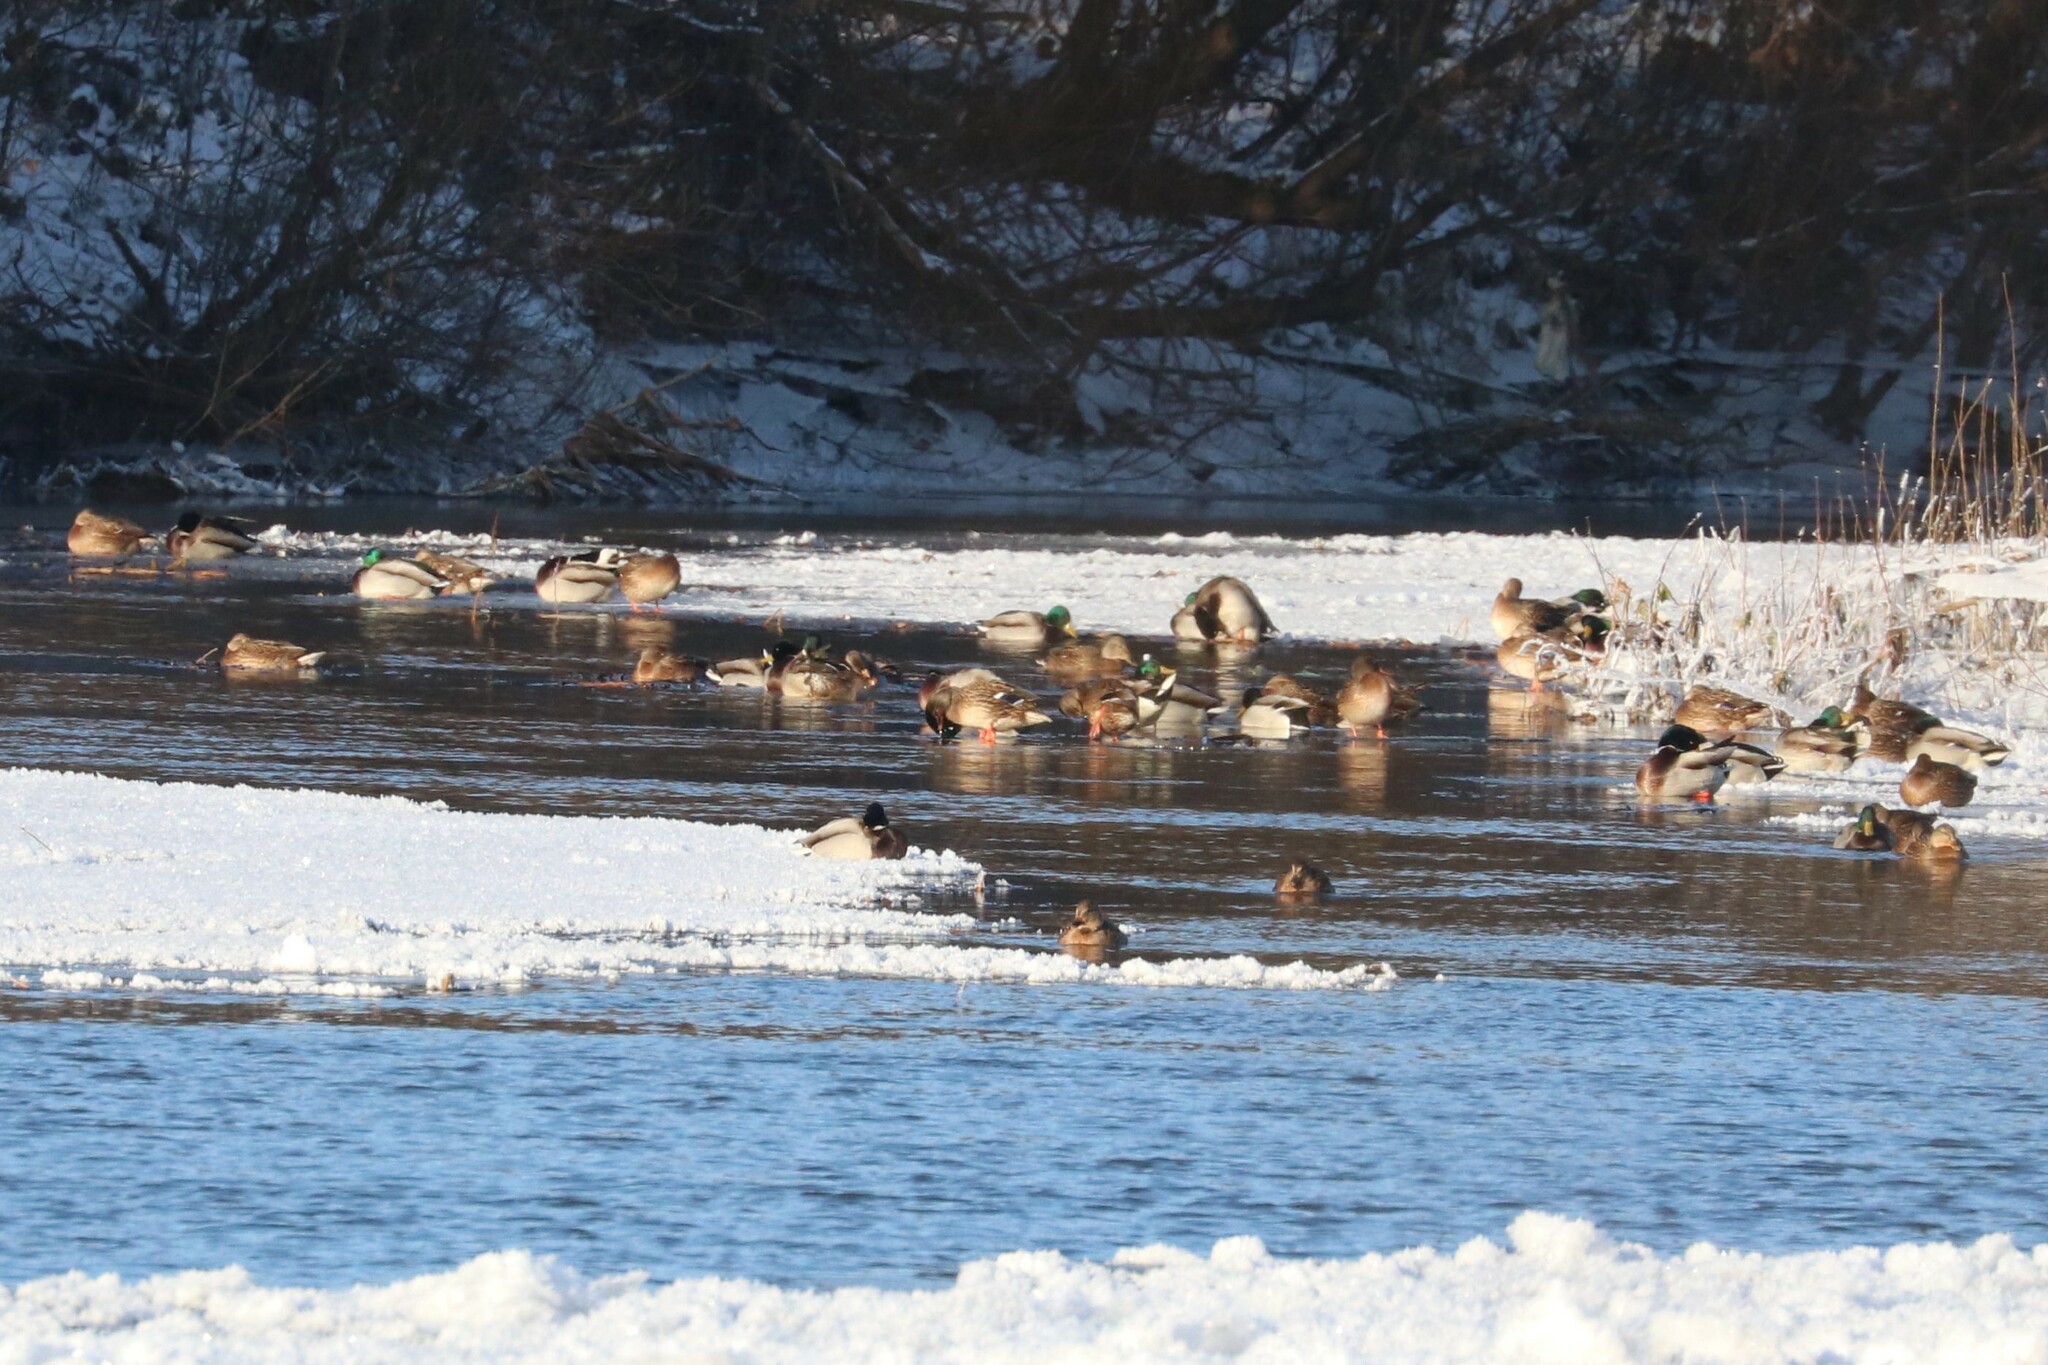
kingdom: Animalia
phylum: Chordata
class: Aves
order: Anseriformes
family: Anatidae
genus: Anas
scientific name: Anas platyrhynchos
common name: Mallard
